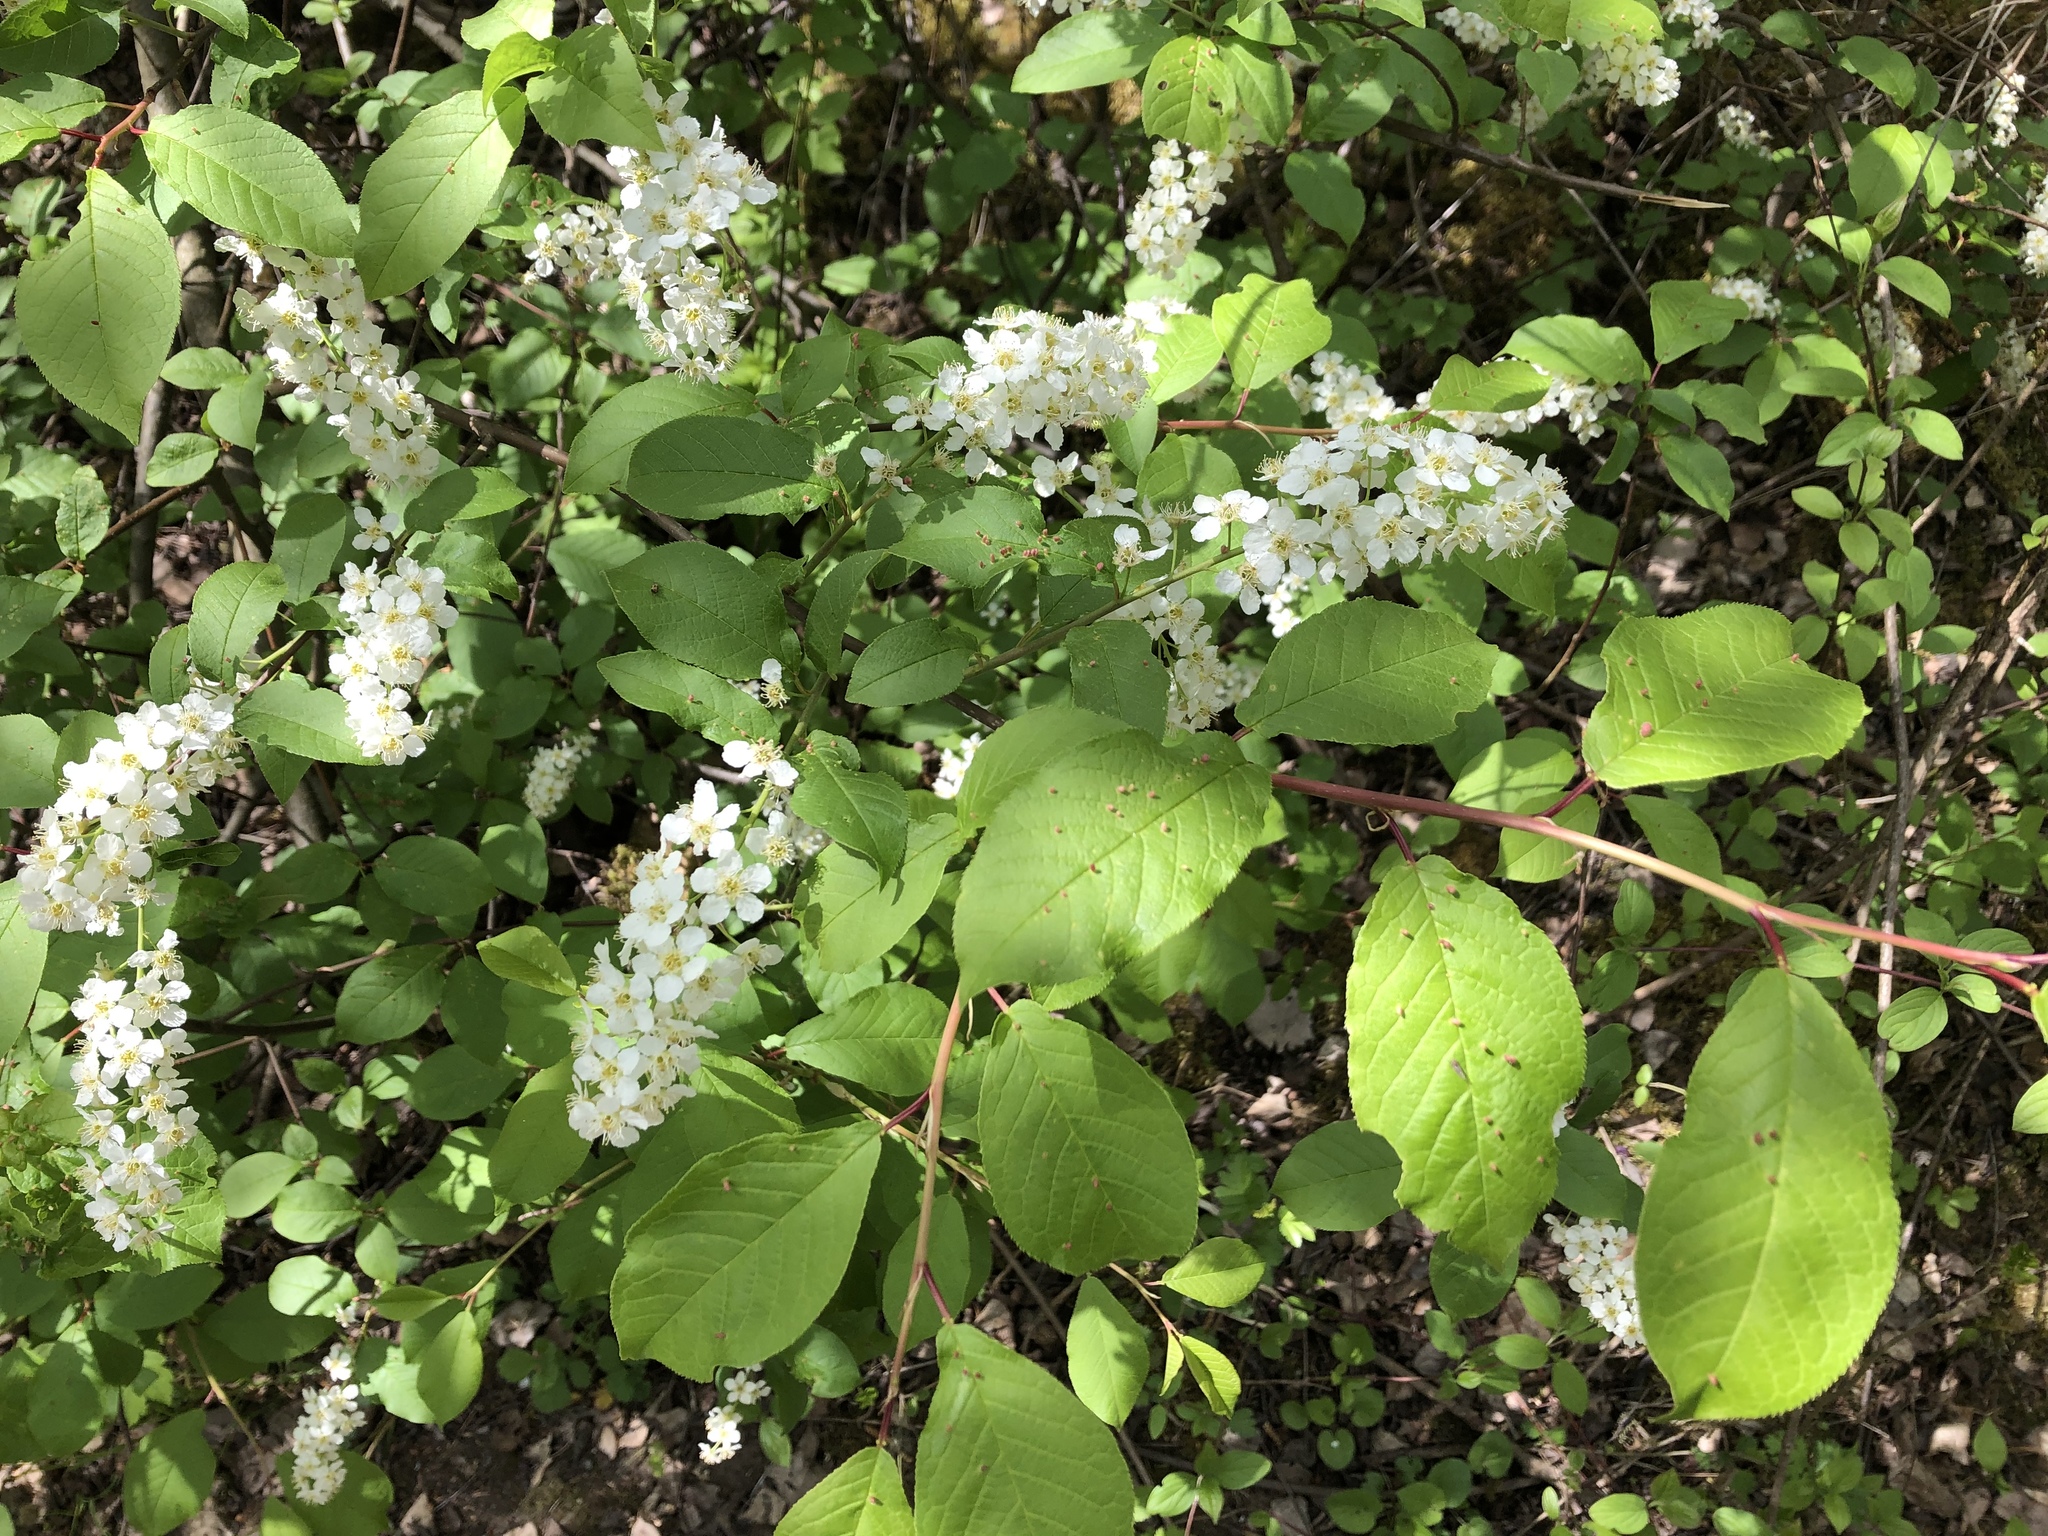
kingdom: Plantae
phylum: Tracheophyta
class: Magnoliopsida
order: Rosales
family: Rosaceae
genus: Prunus
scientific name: Prunus padus
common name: Bird cherry
